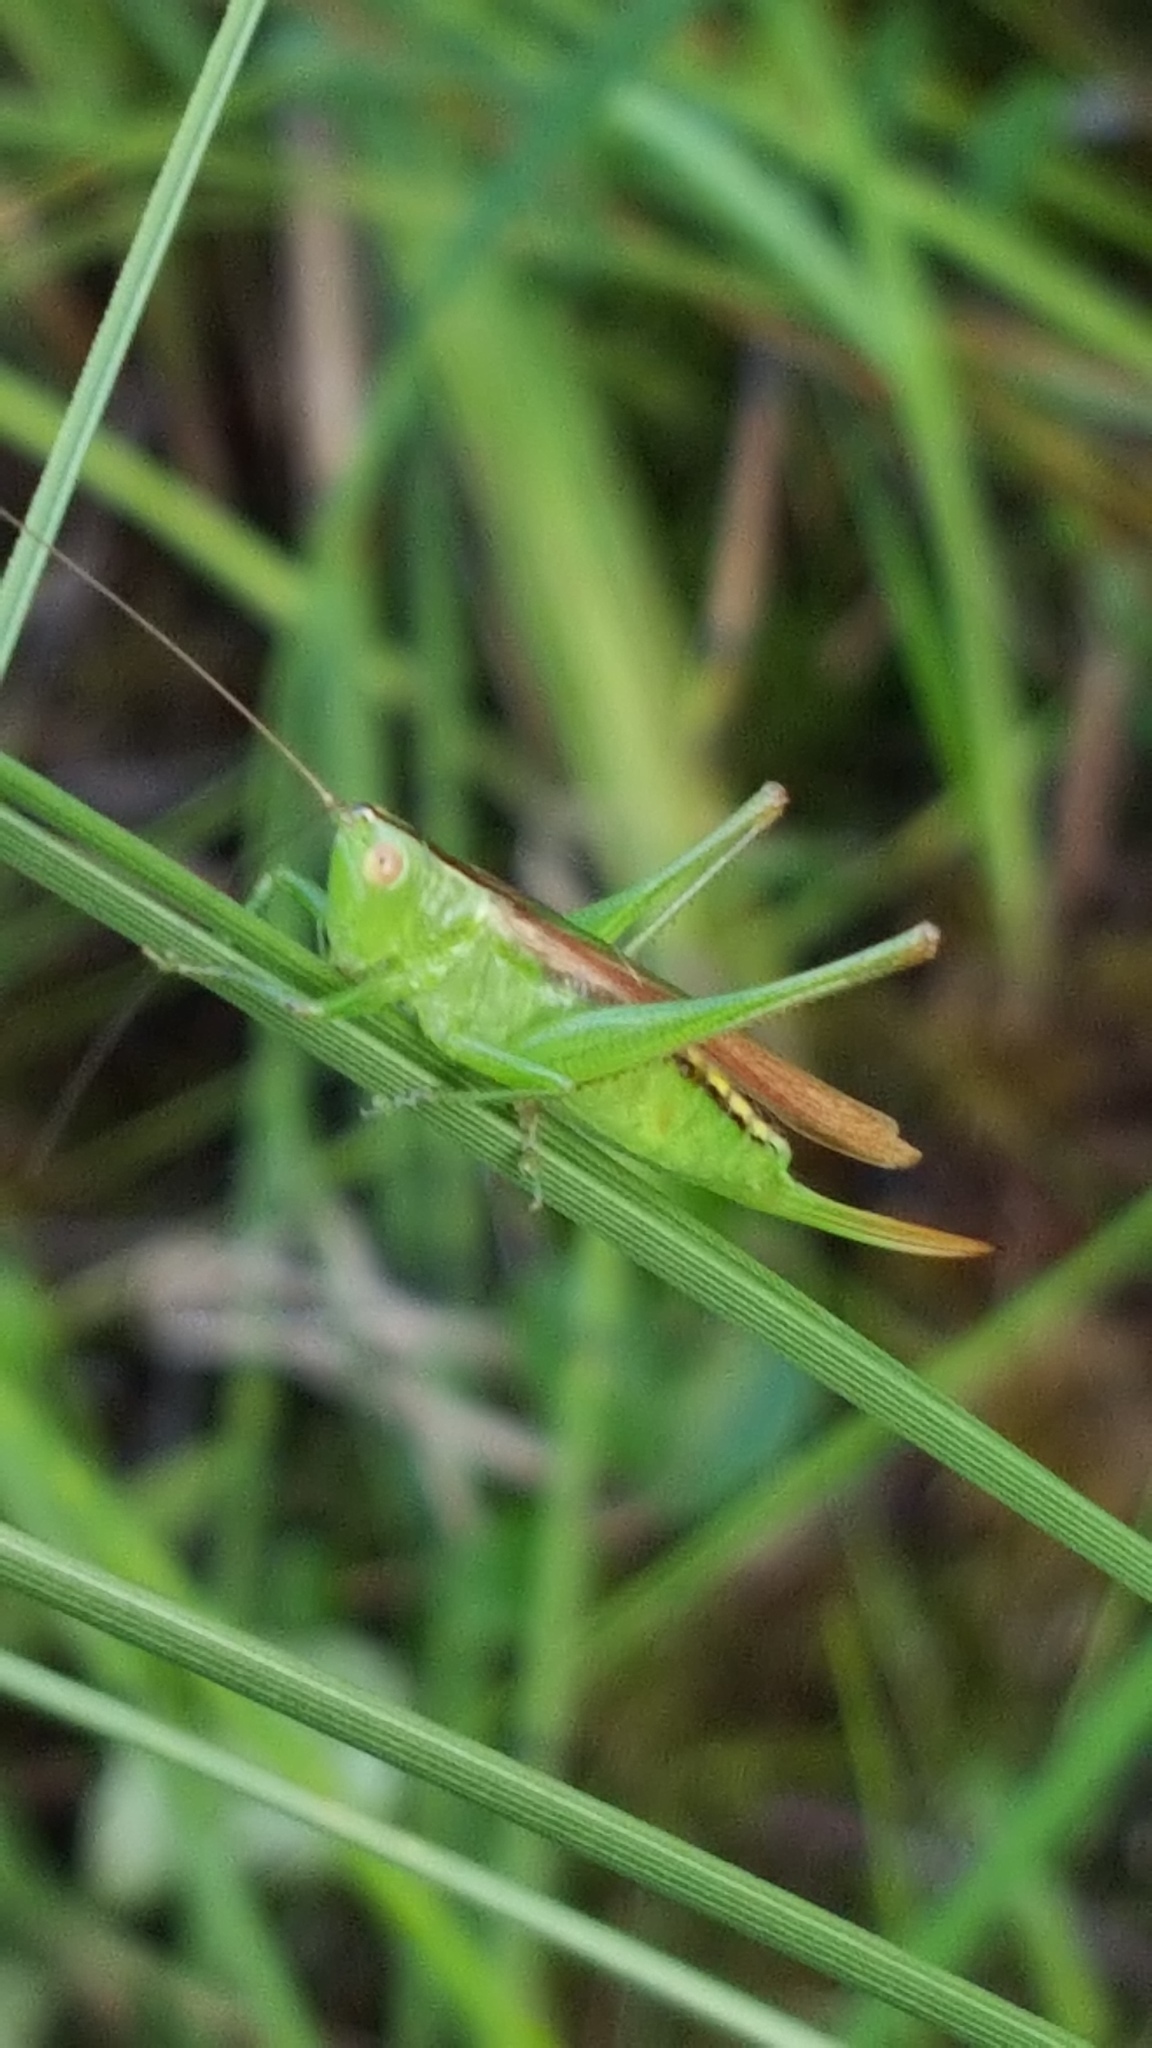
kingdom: Animalia
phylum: Arthropoda
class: Insecta
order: Orthoptera
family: Tettigoniidae
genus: Conocephalus
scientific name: Conocephalus fasciatus
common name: Slender meadow katydid
